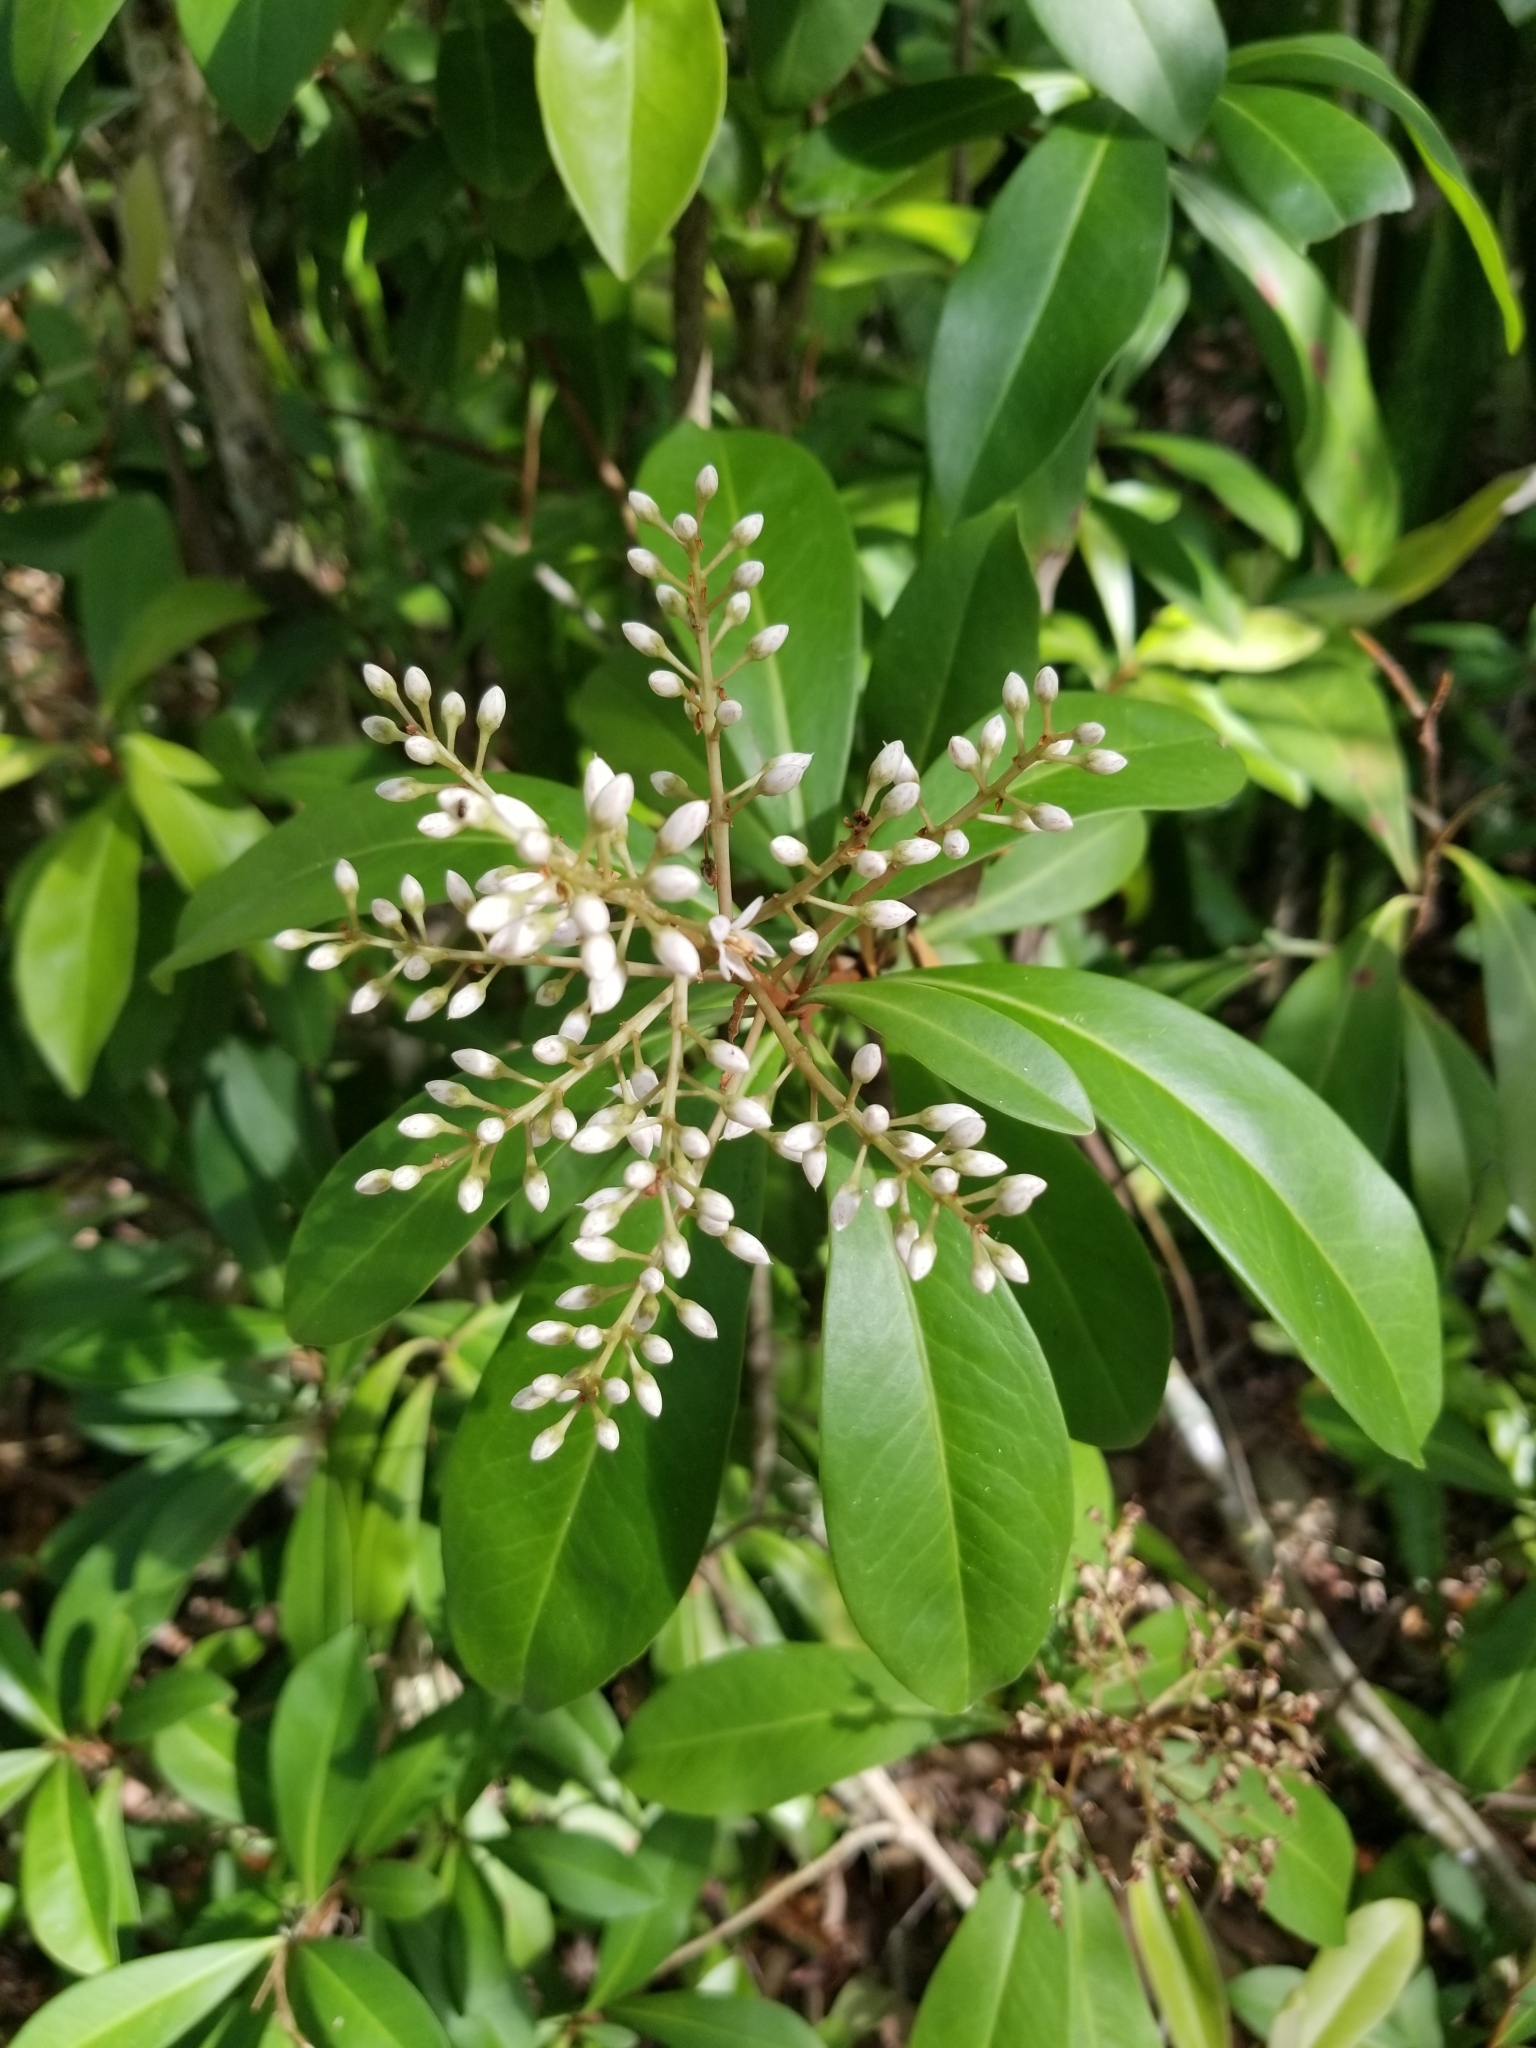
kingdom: Plantae
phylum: Tracheophyta
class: Magnoliopsida
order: Ericales
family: Primulaceae
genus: Ardisia
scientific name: Ardisia escallonioides
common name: Island marlberry
